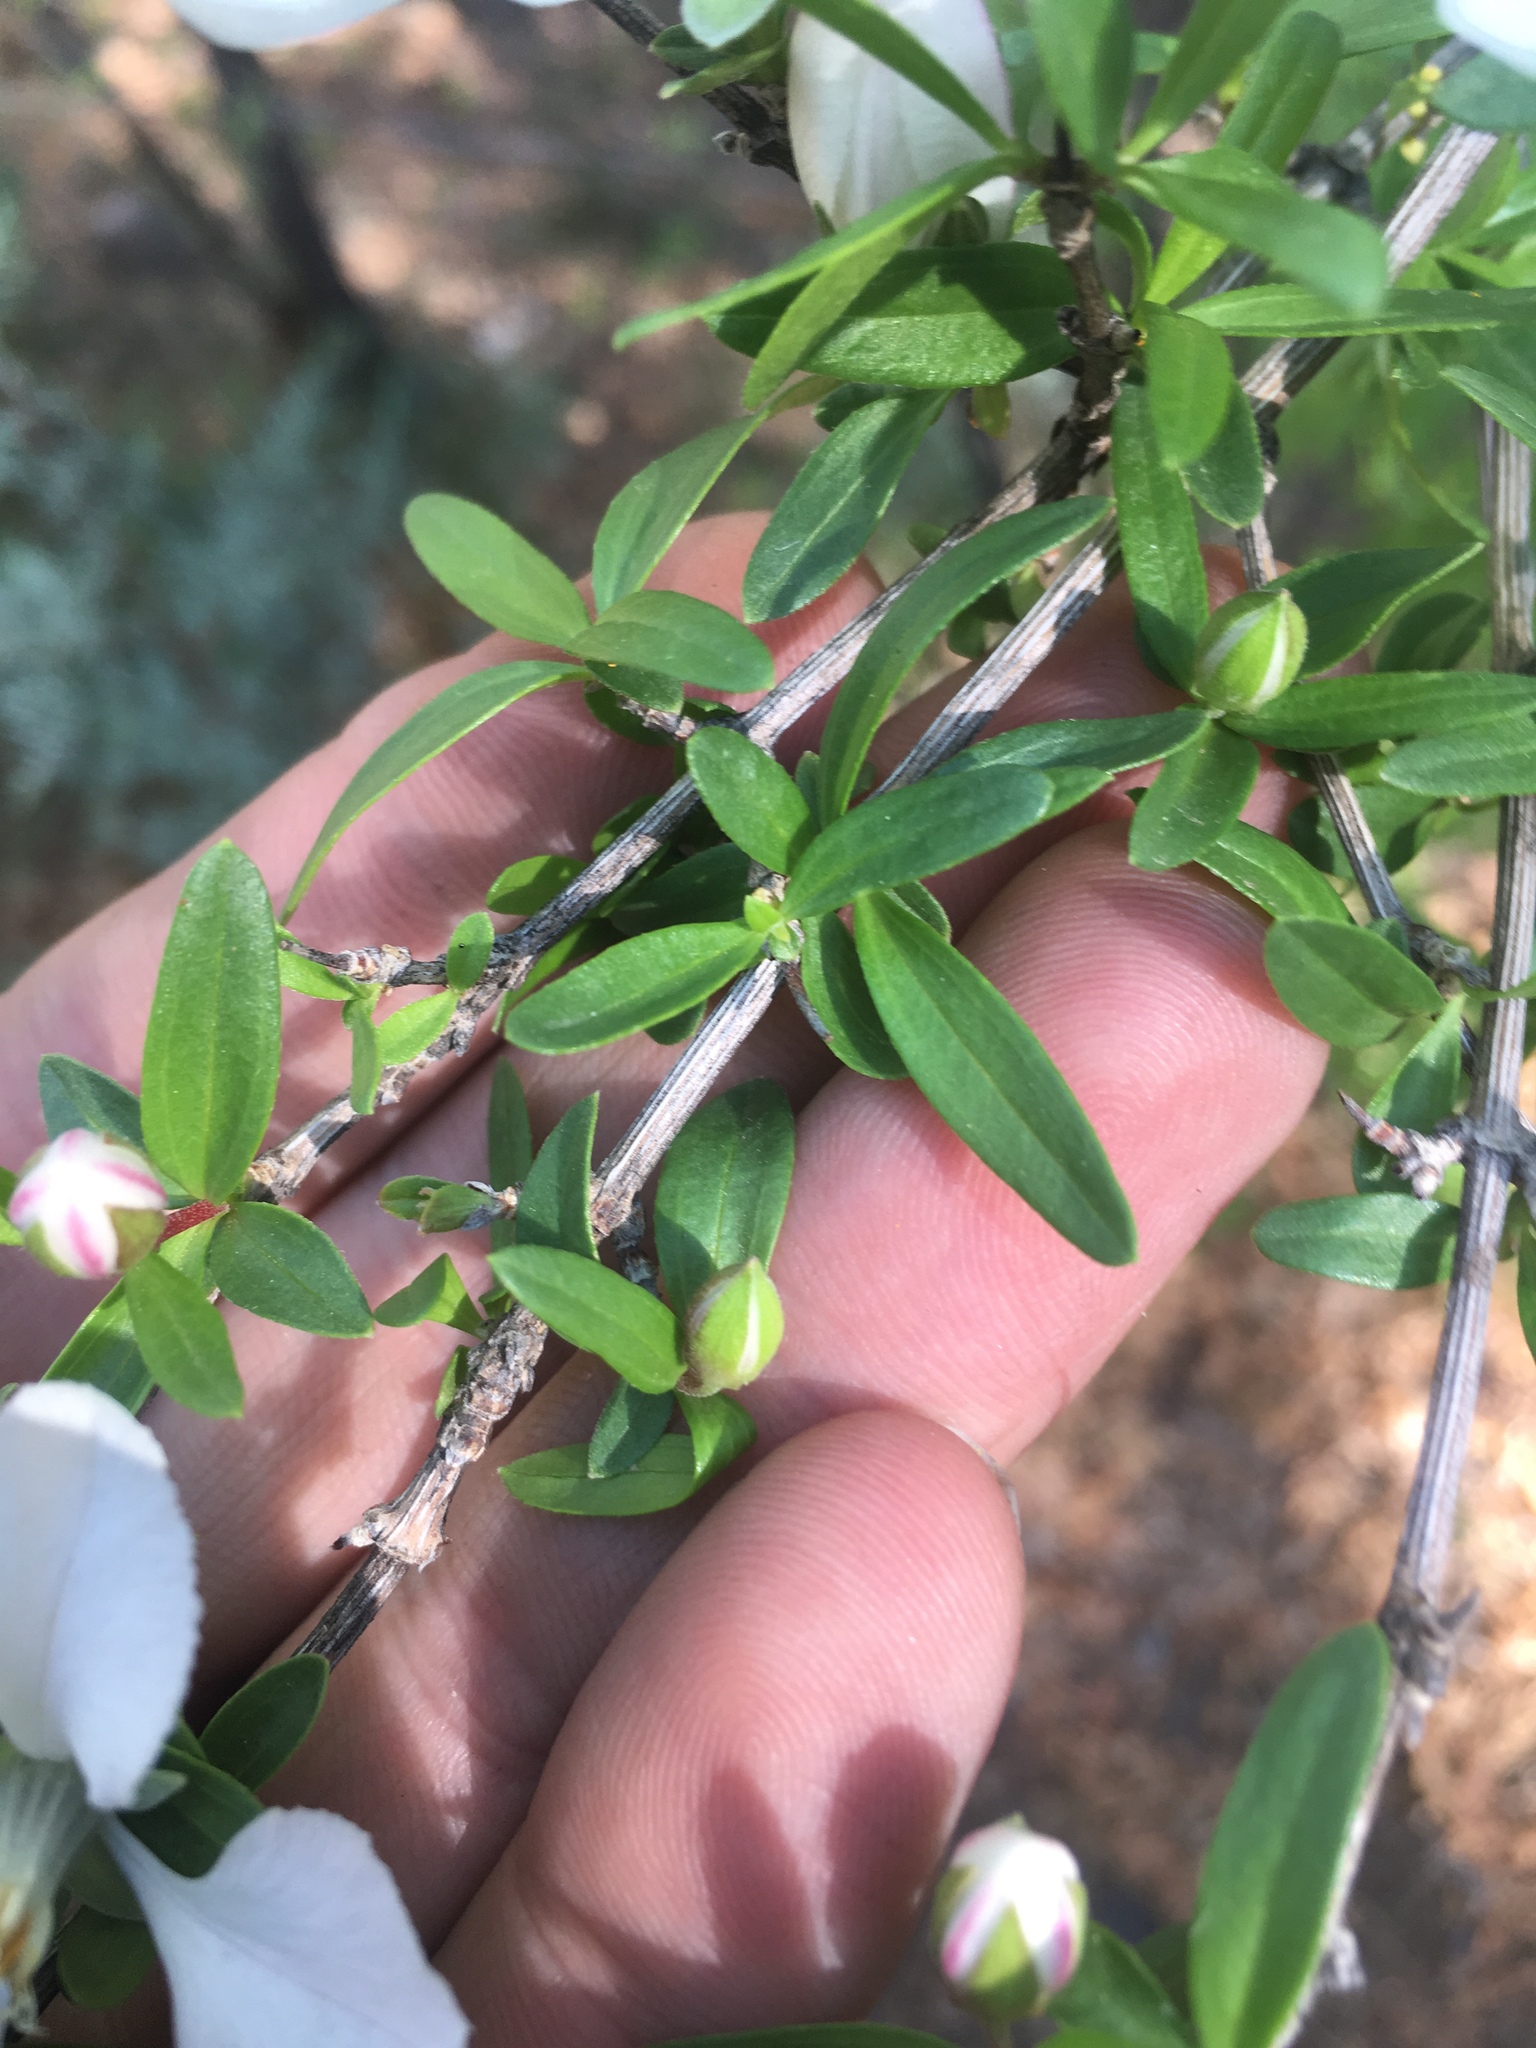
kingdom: Plantae
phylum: Tracheophyta
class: Magnoliopsida
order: Cornales
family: Hydrangeaceae
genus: Fendlera
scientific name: Fendlera rupicola
